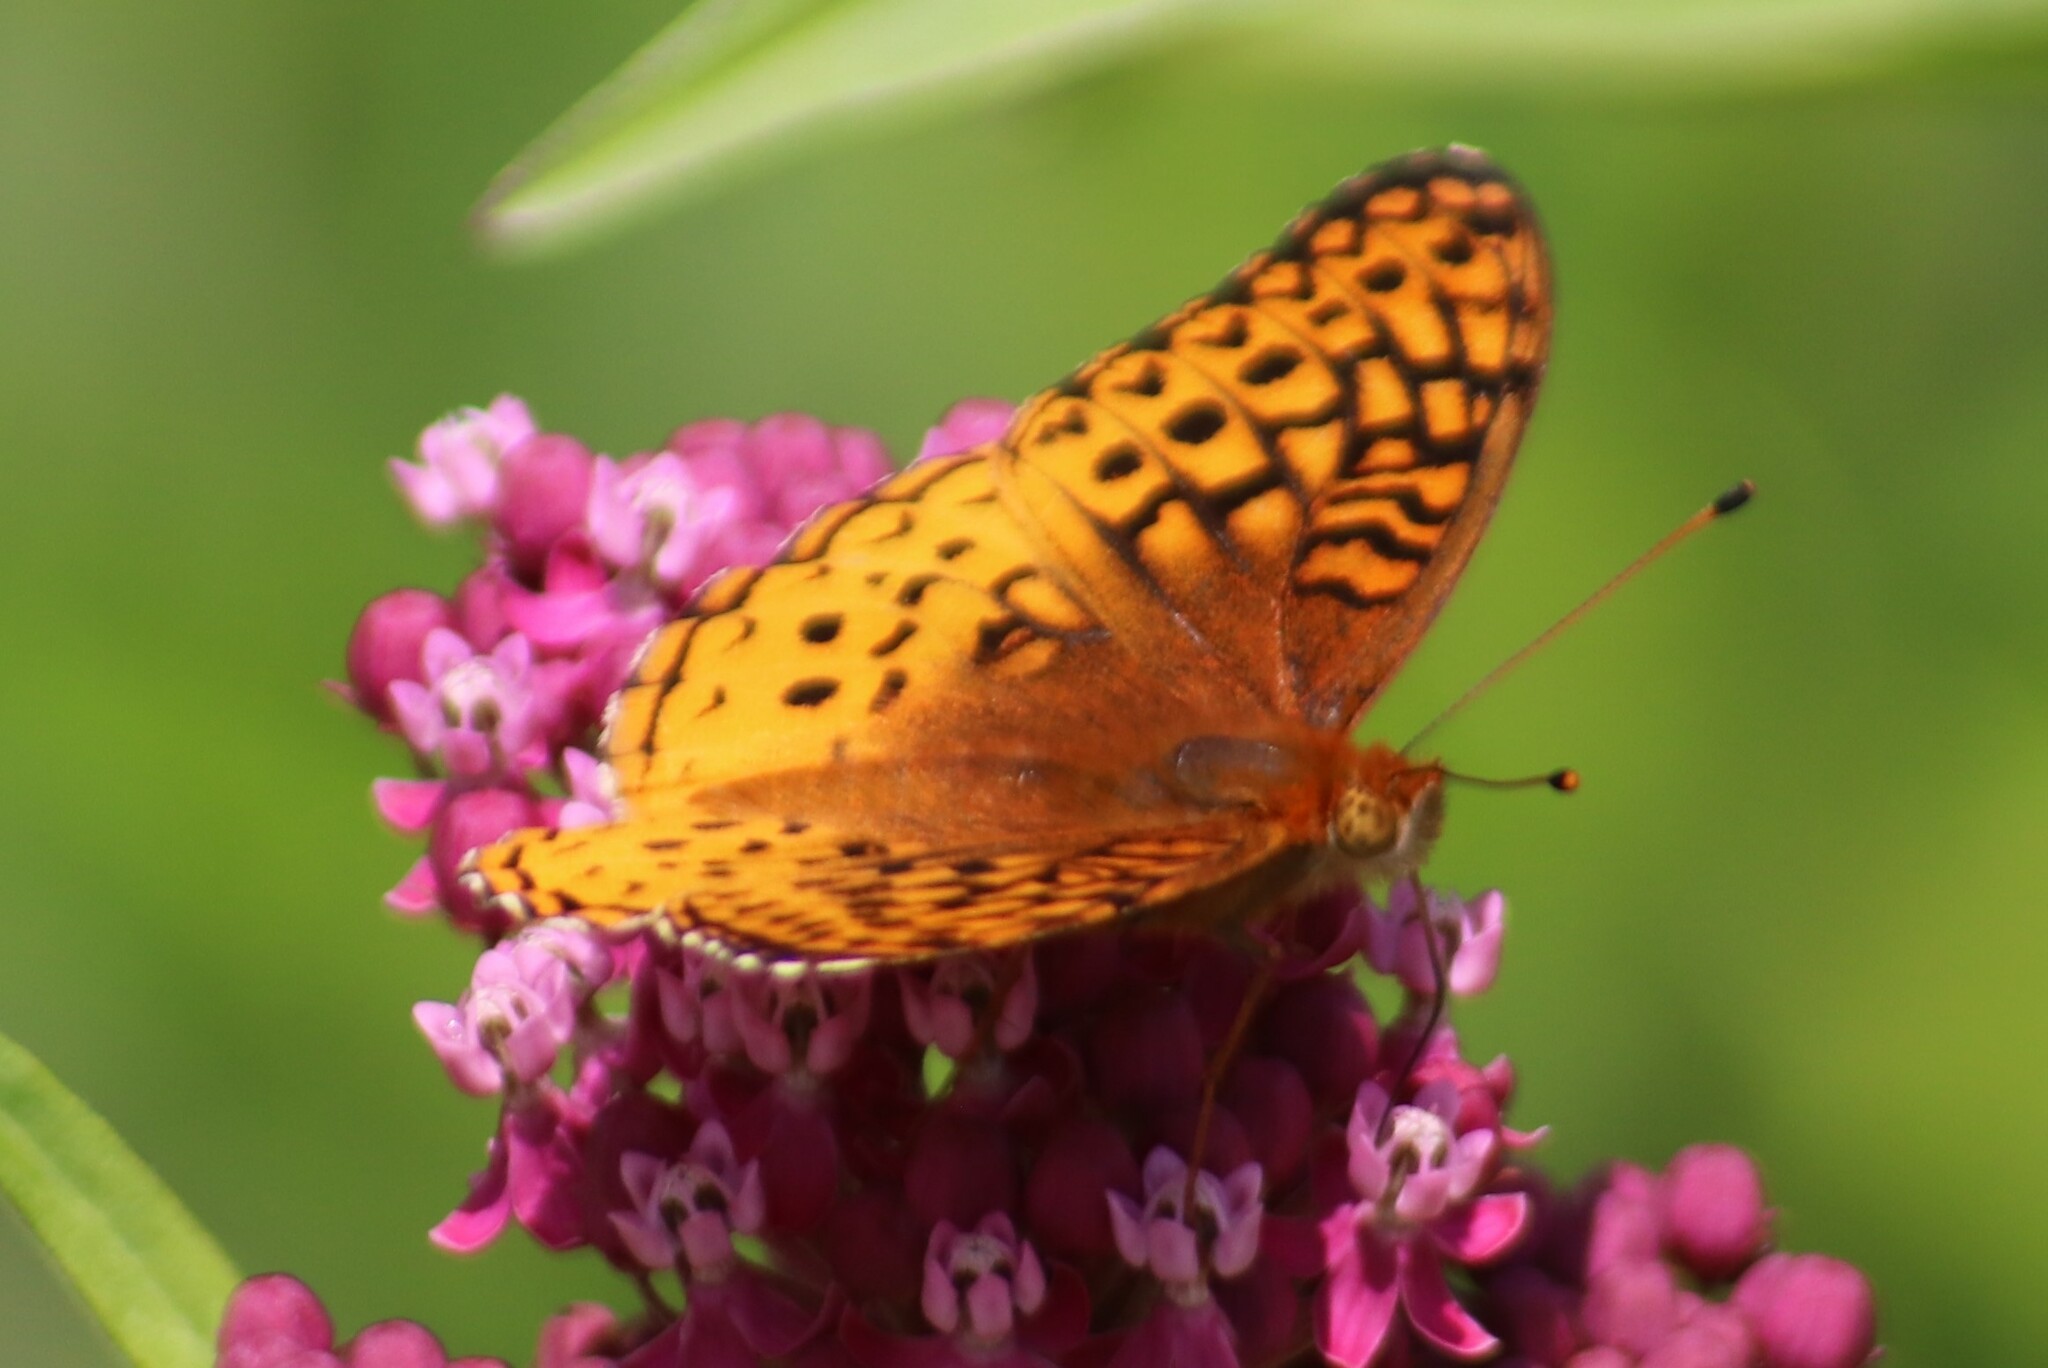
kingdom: Animalia
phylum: Arthropoda
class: Insecta
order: Lepidoptera
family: Nymphalidae
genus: Speyeria
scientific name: Speyeria cybele
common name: Great spangled fritillary
